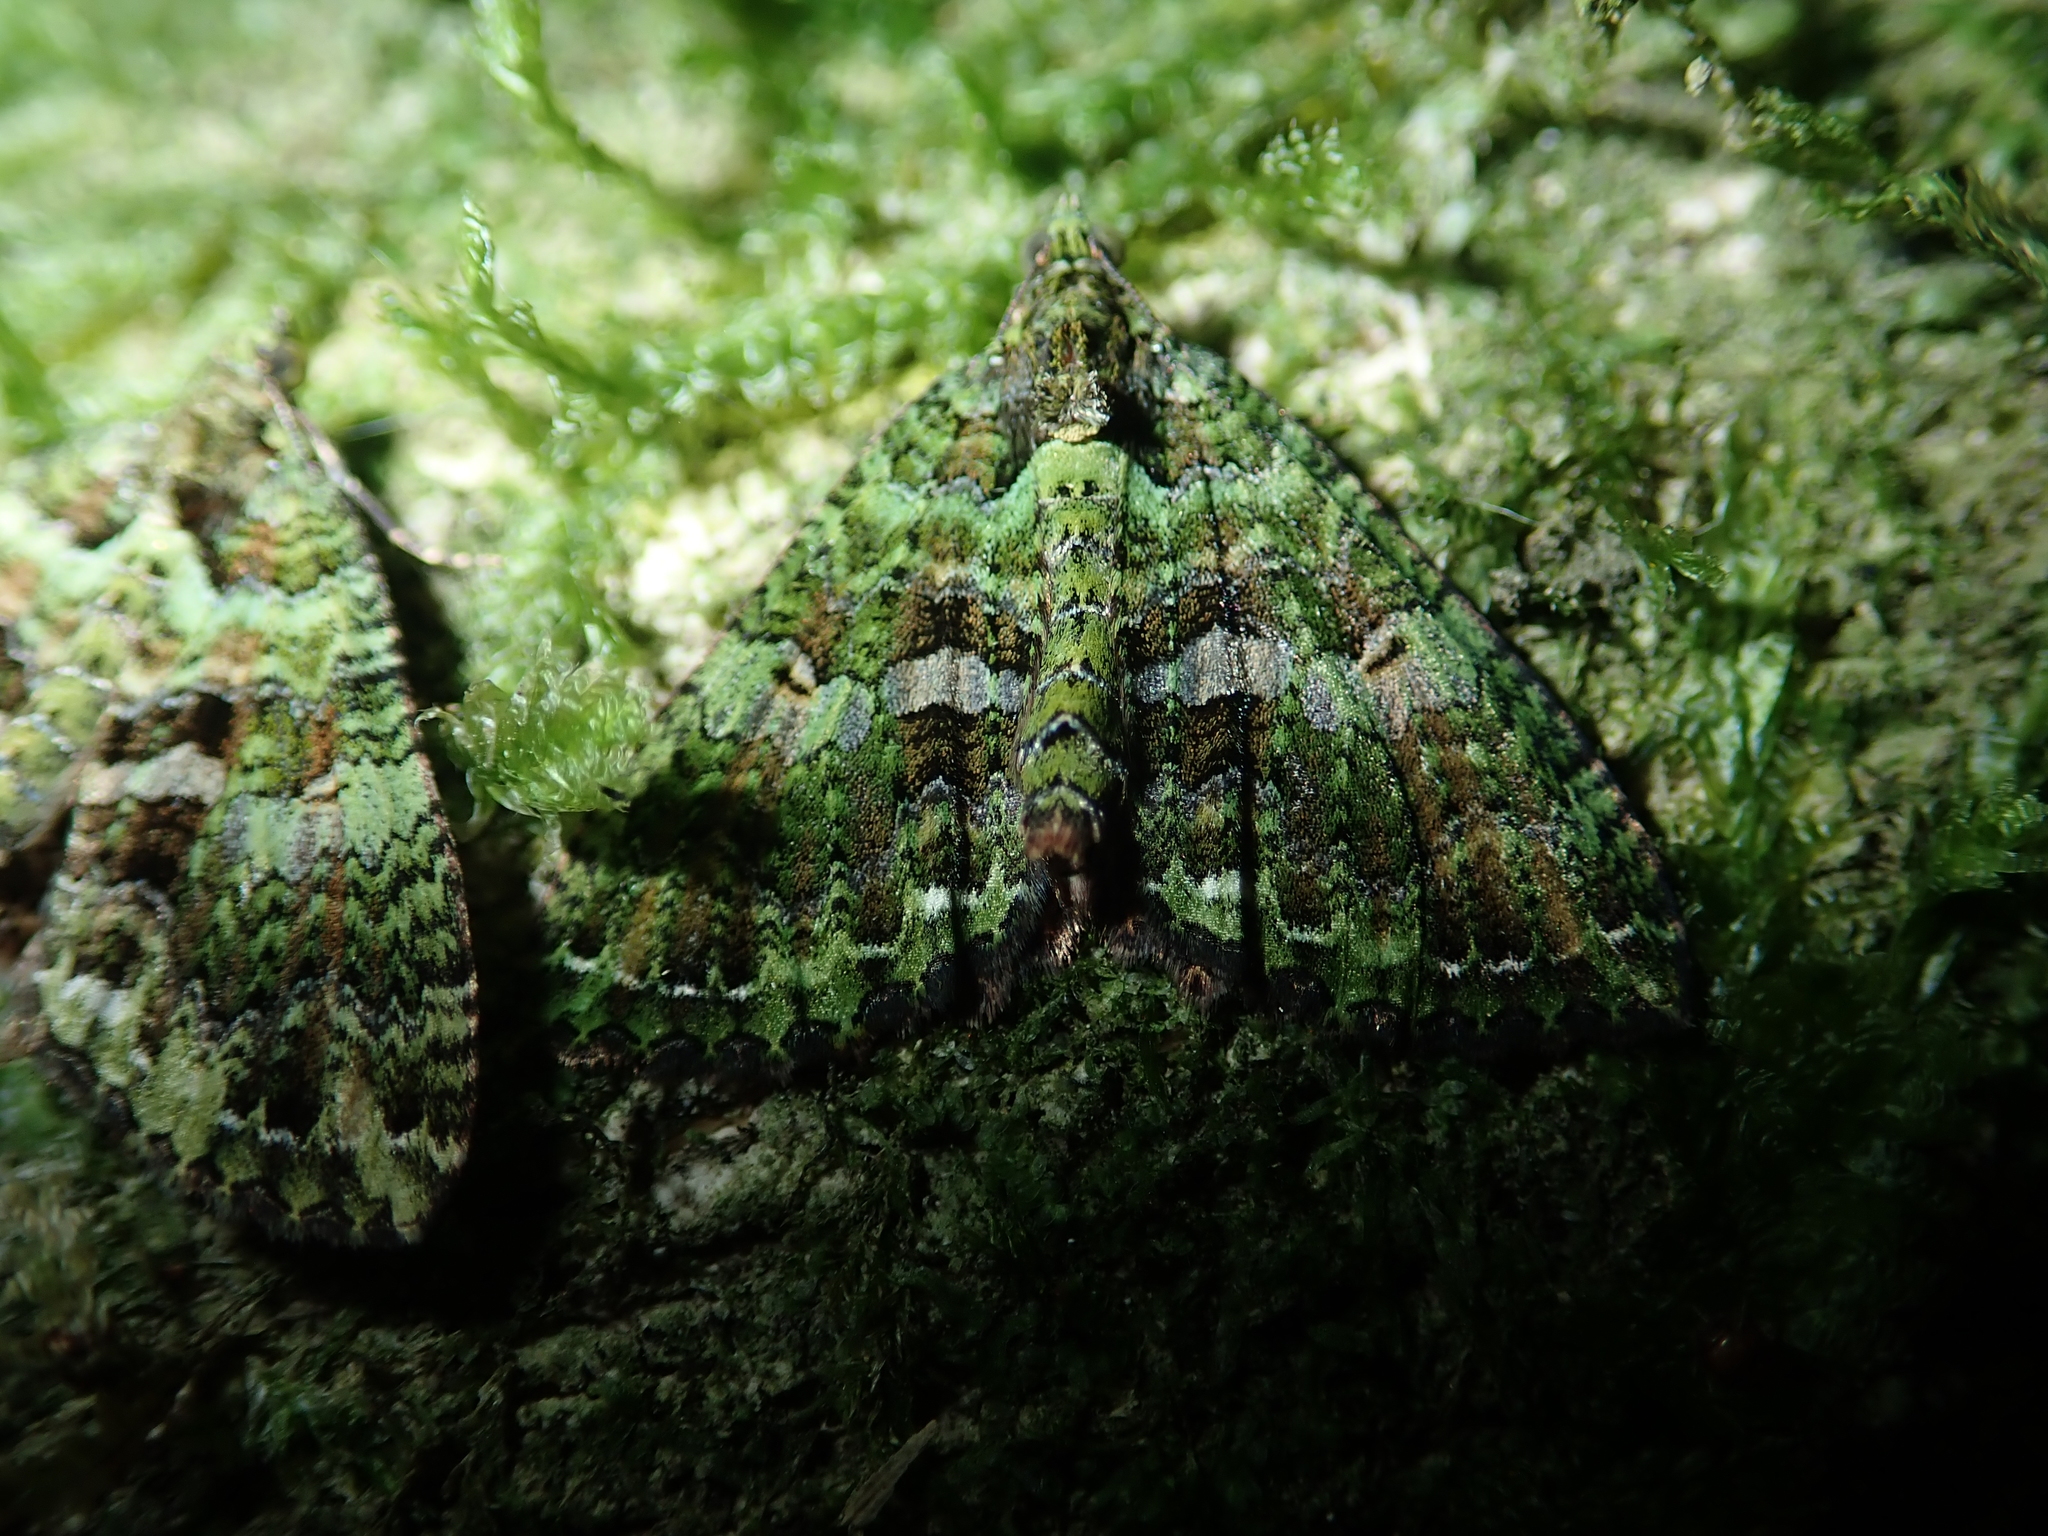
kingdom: Animalia
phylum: Arthropoda
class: Insecta
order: Lepidoptera
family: Geometridae
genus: Austrocidaria
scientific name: Austrocidaria similata
